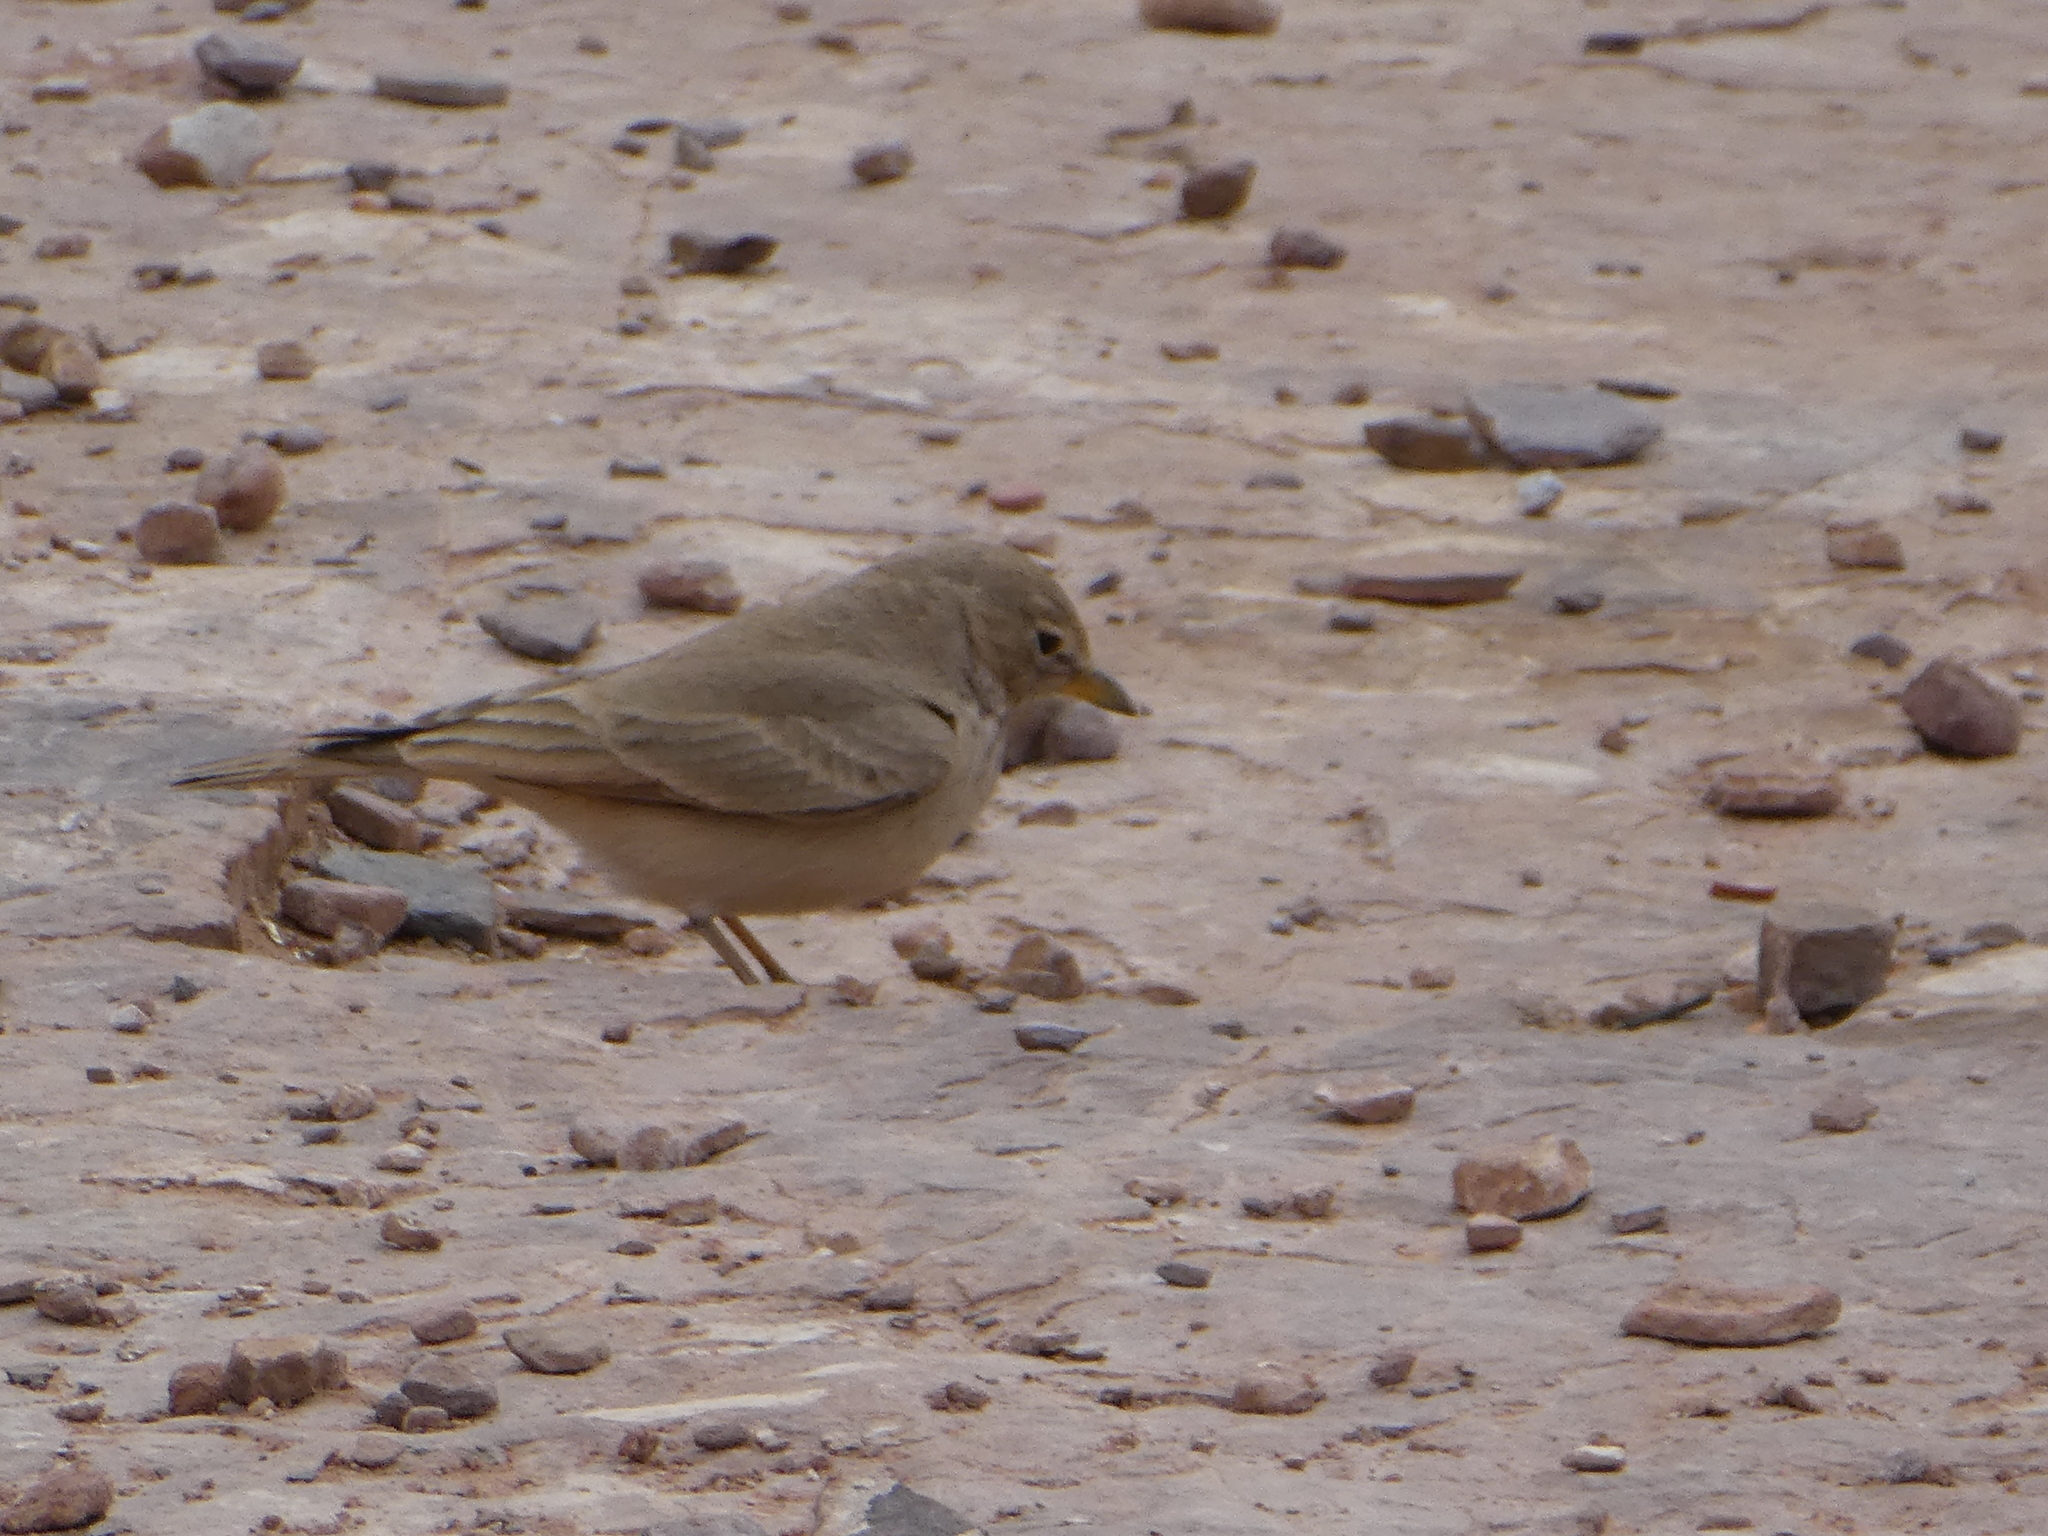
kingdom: Animalia
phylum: Chordata
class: Aves
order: Passeriformes
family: Alaudidae
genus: Ammomanes
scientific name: Ammomanes deserti
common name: Desert lark
